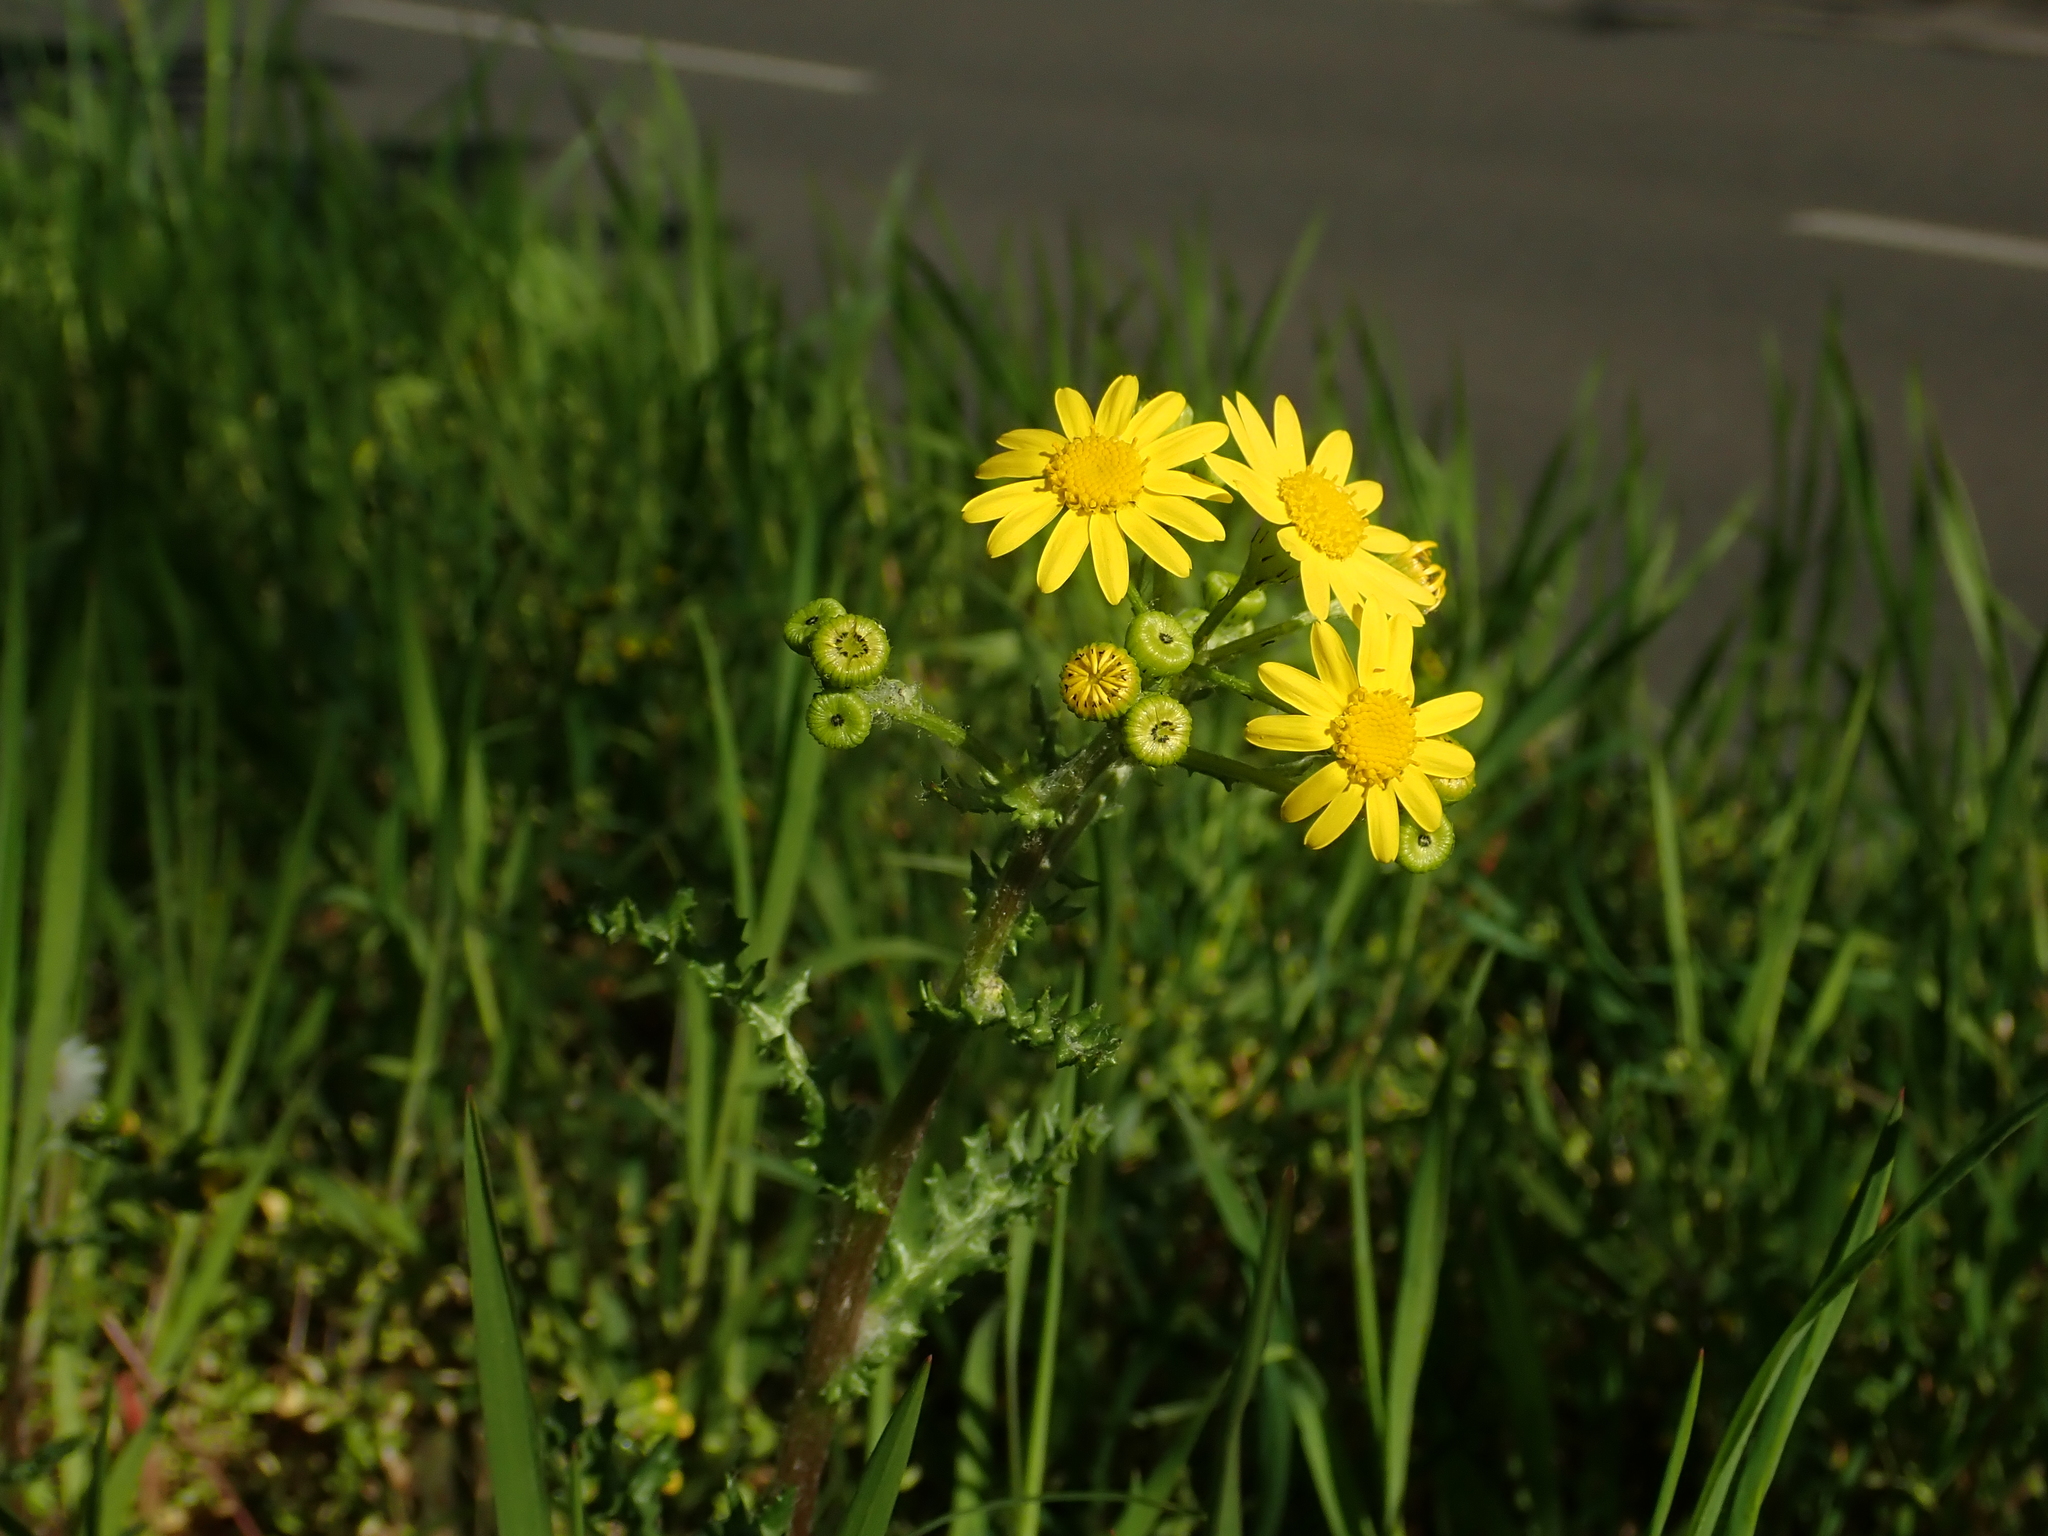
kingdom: Plantae
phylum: Tracheophyta
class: Magnoliopsida
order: Asterales
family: Asteraceae
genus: Senecio
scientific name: Senecio vernalis
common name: Eastern groundsel
